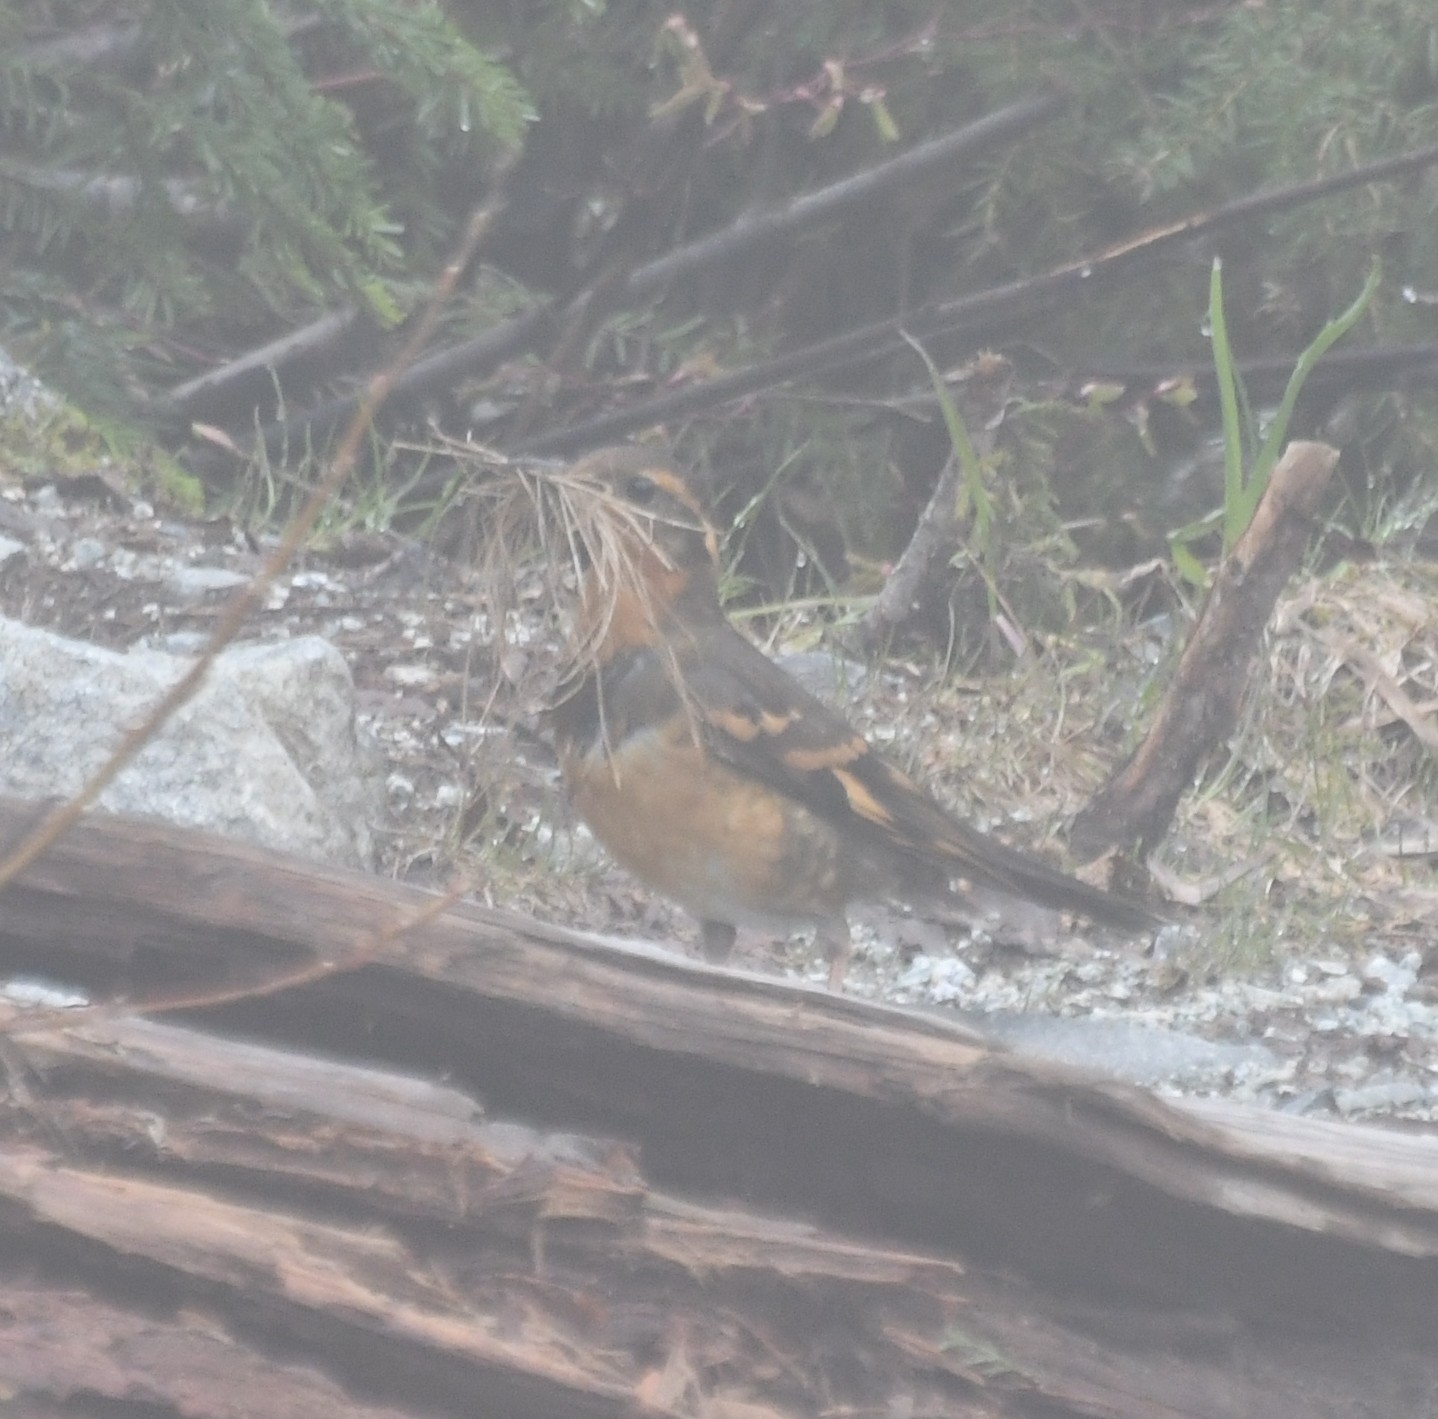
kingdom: Animalia
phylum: Chordata
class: Aves
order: Passeriformes
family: Turdidae
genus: Ixoreus
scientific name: Ixoreus naevius
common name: Varied thrush
